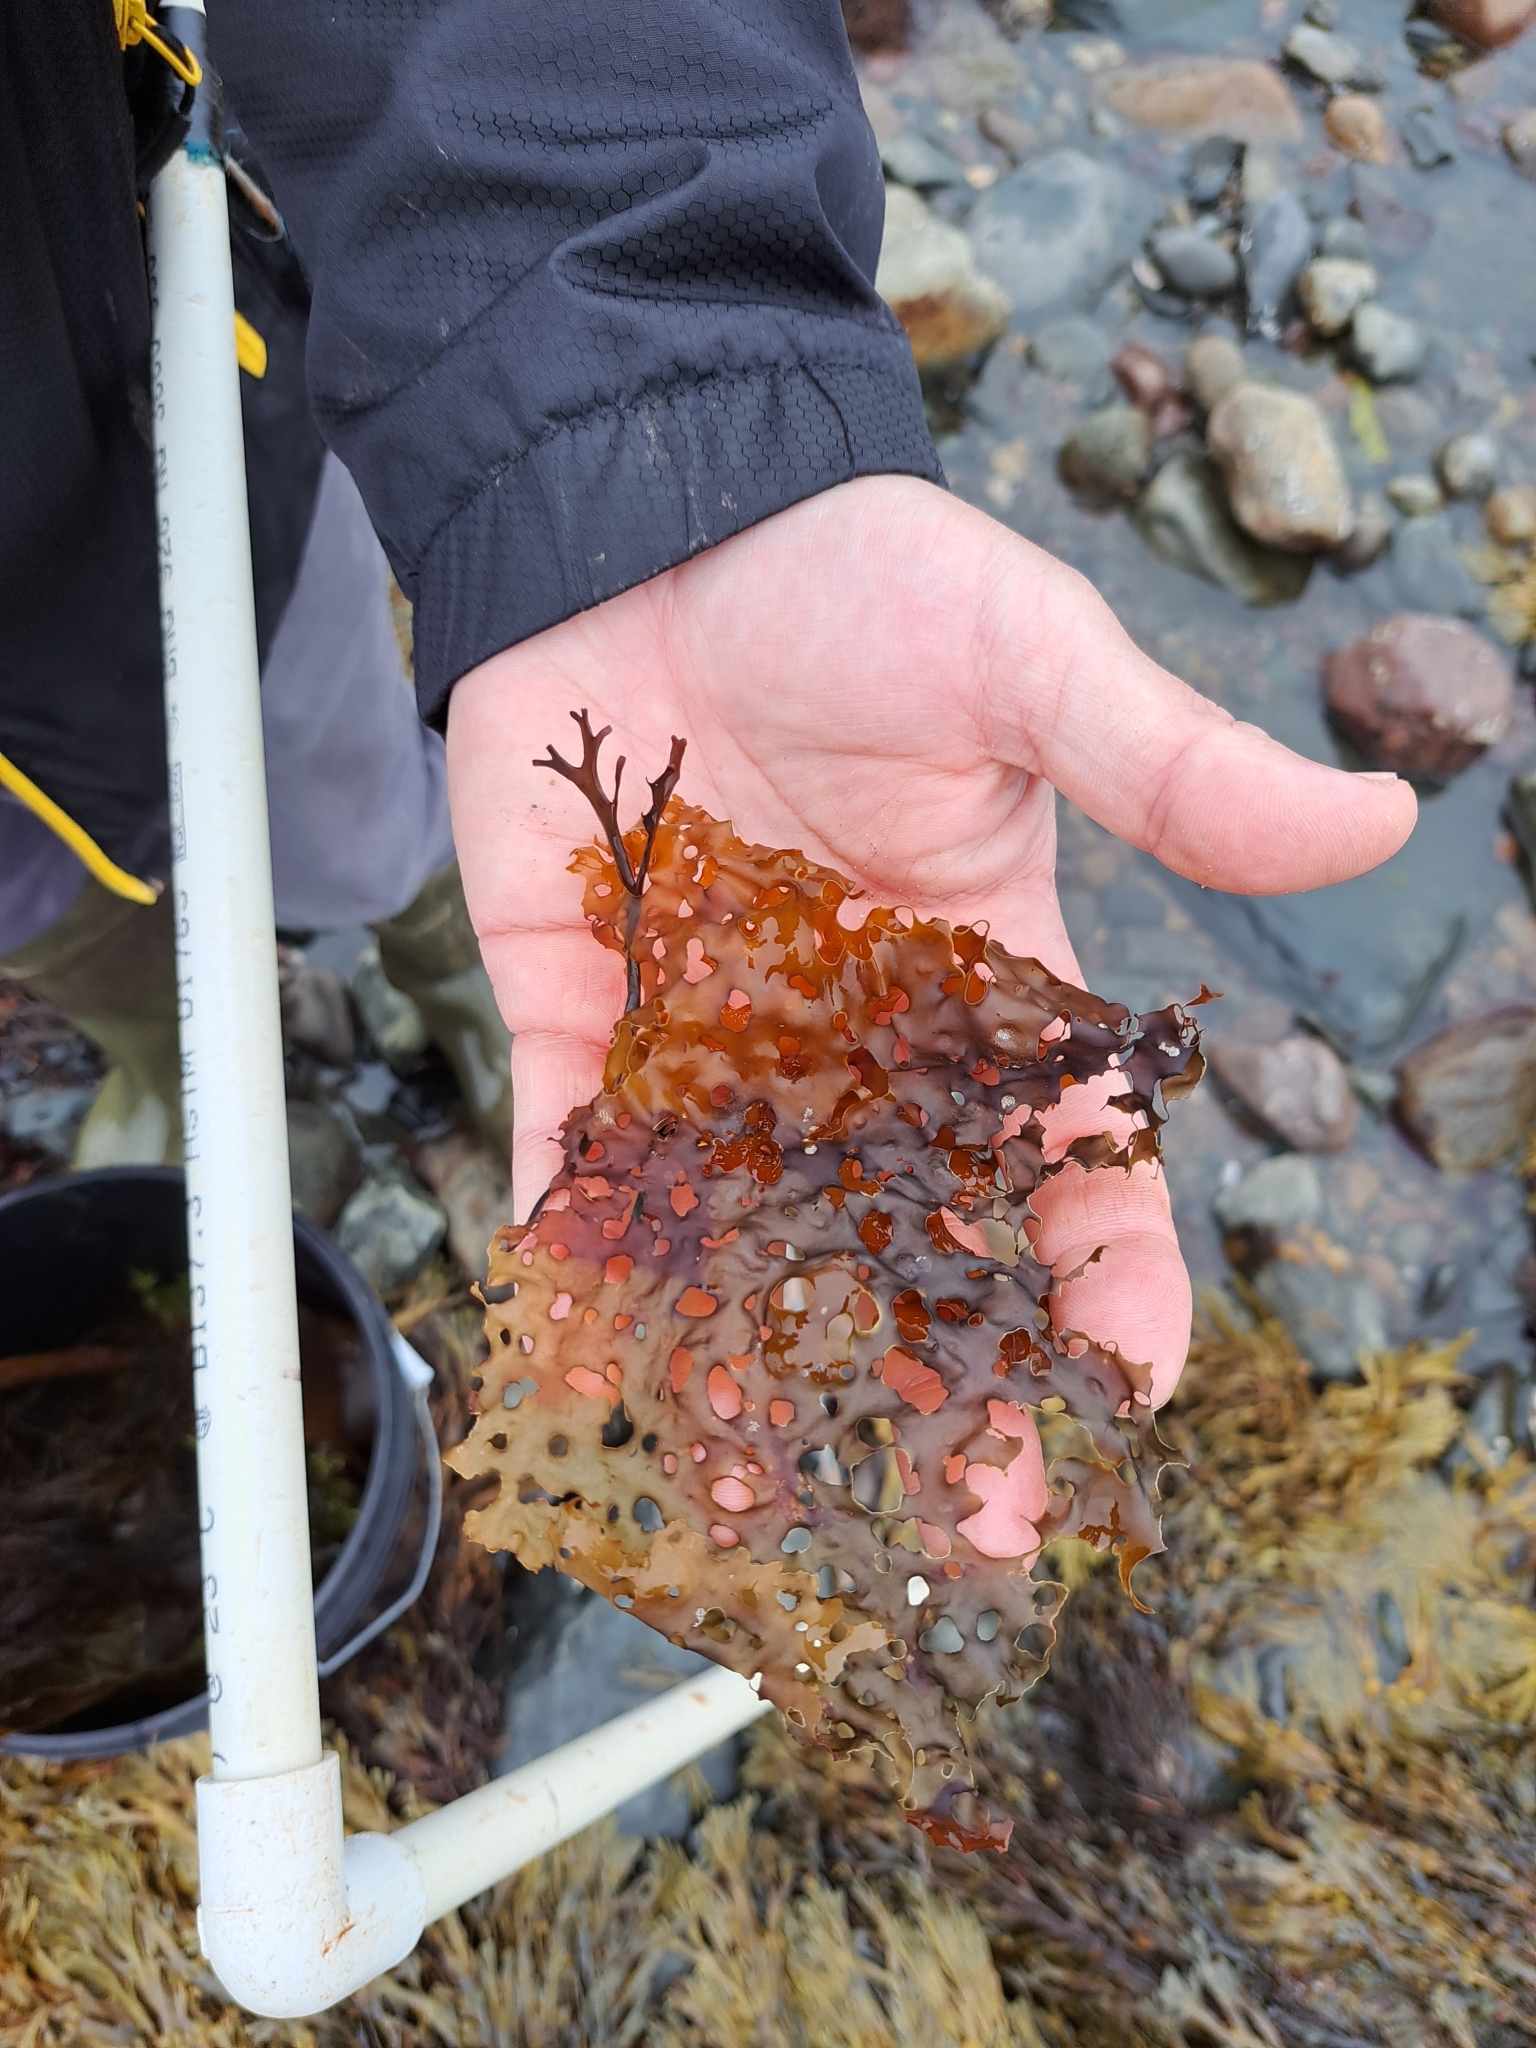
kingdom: Chromista
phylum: Ochrophyta
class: Phaeophyceae
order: Laminariales
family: Costariaceae
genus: Agarum
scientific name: Agarum clathratum
